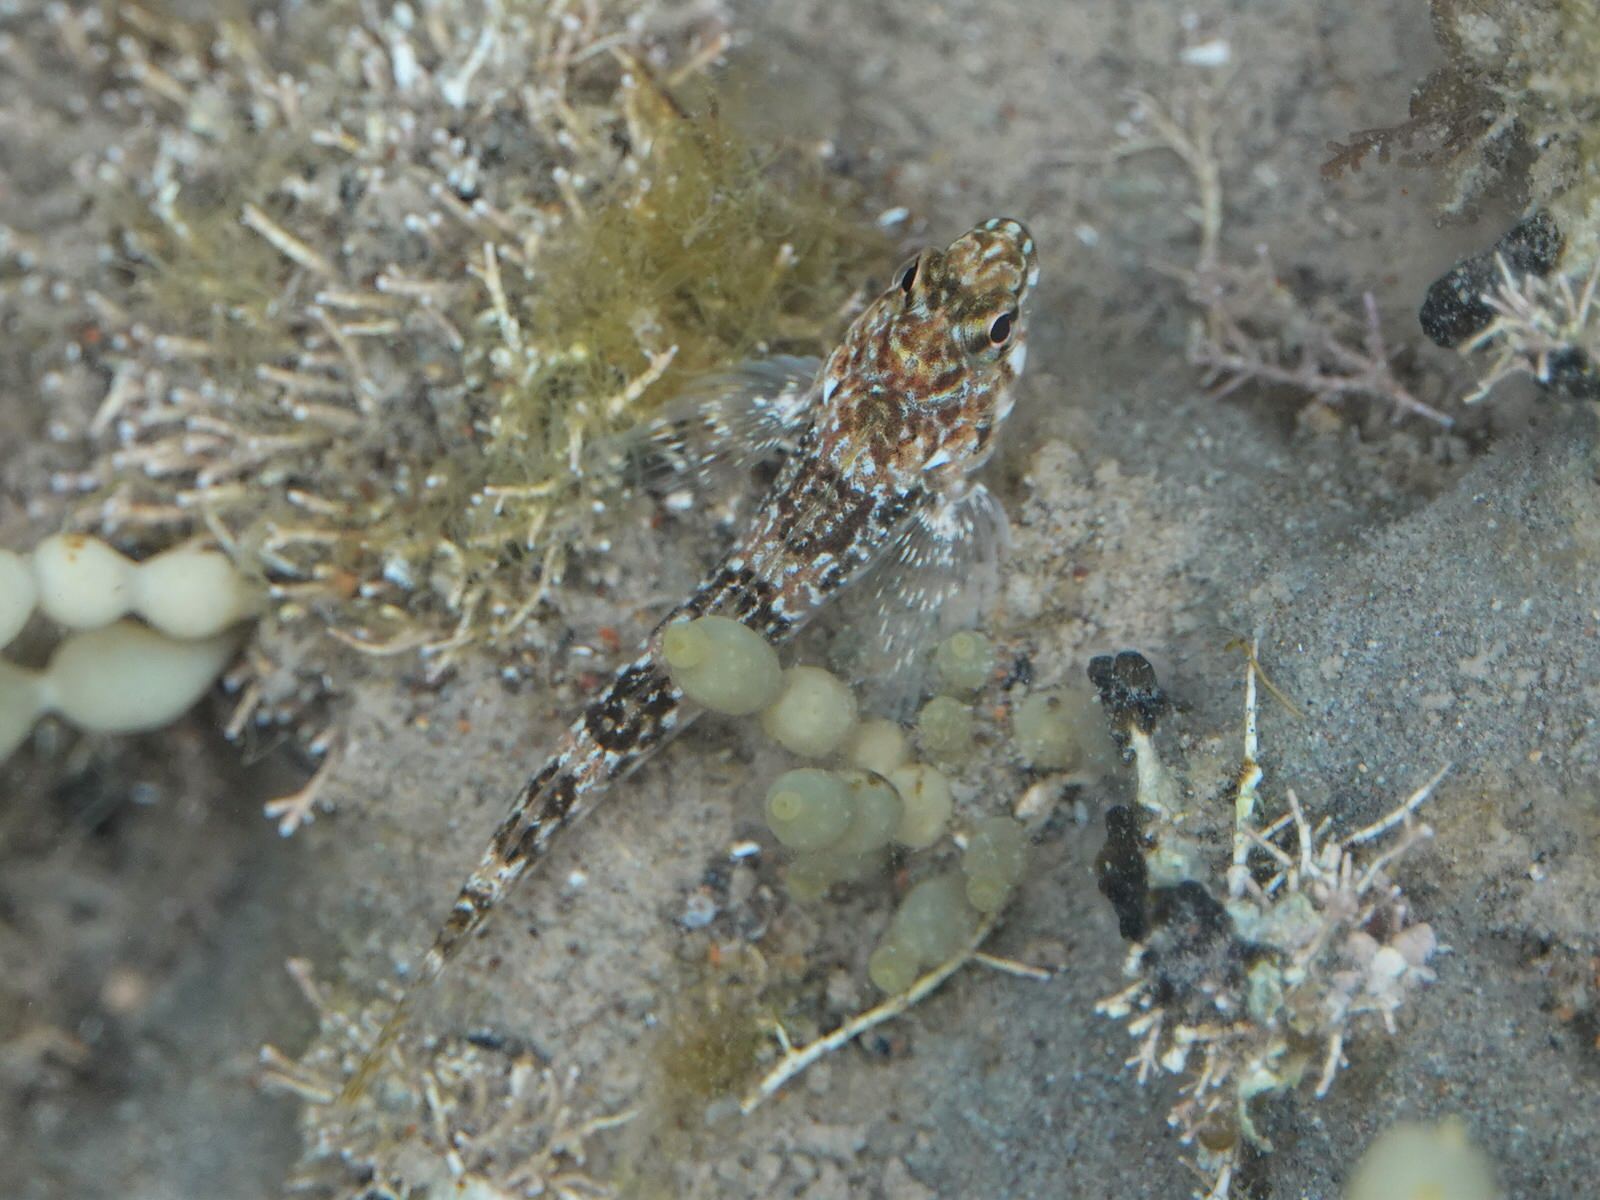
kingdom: Animalia
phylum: Chordata
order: Perciformes
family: Tripterygiidae
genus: Bellapiscis
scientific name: Bellapiscis medius
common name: Twister
